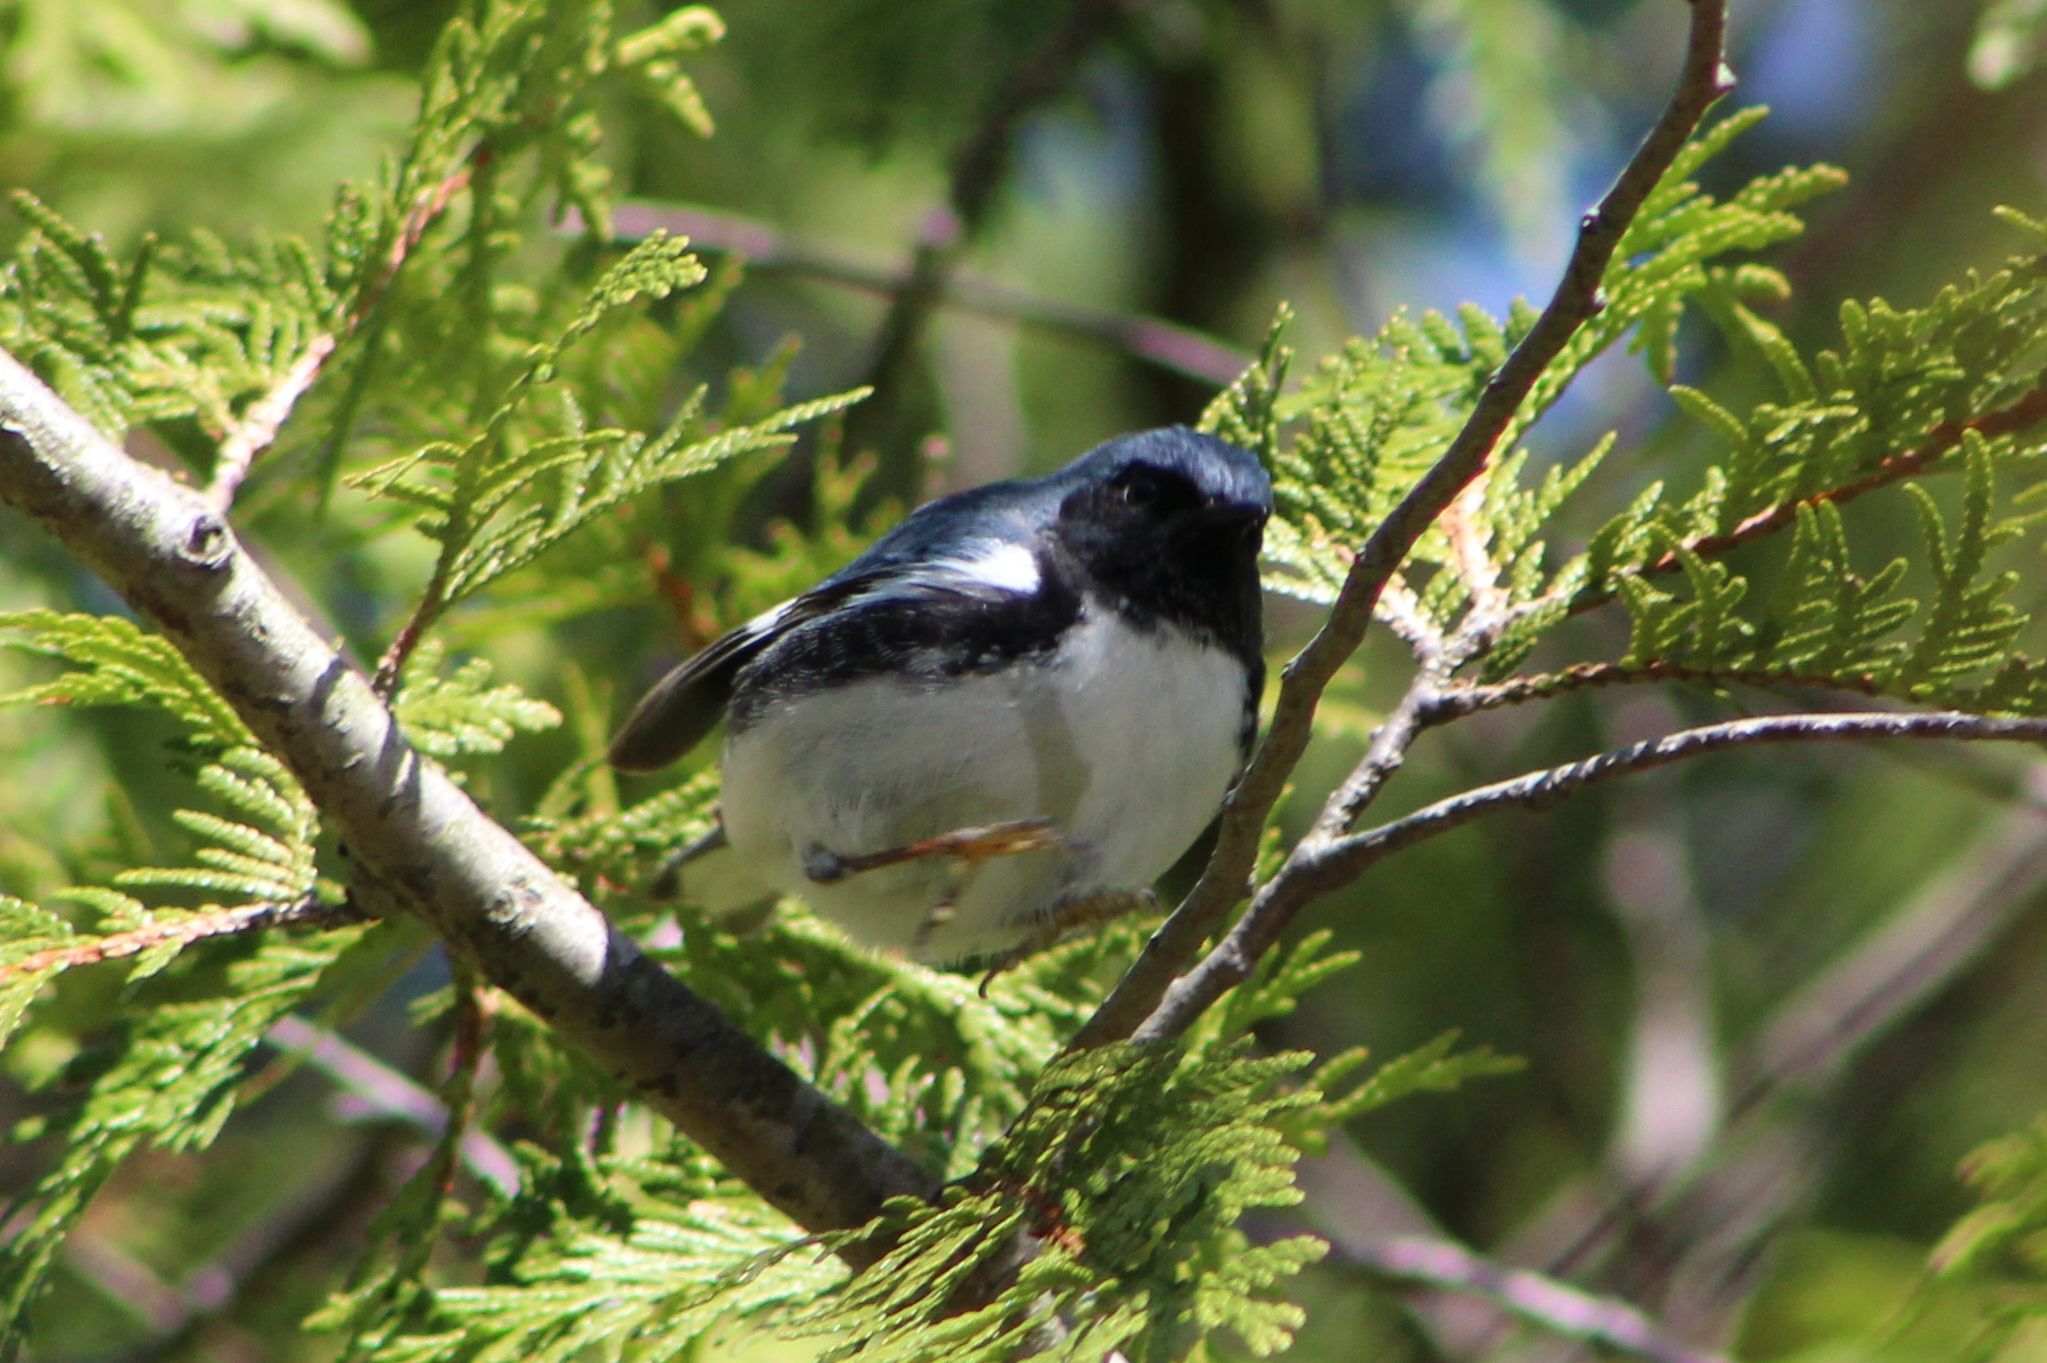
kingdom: Animalia
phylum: Chordata
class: Aves
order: Passeriformes
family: Parulidae
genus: Setophaga
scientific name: Setophaga caerulescens
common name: Black-throated blue warbler
